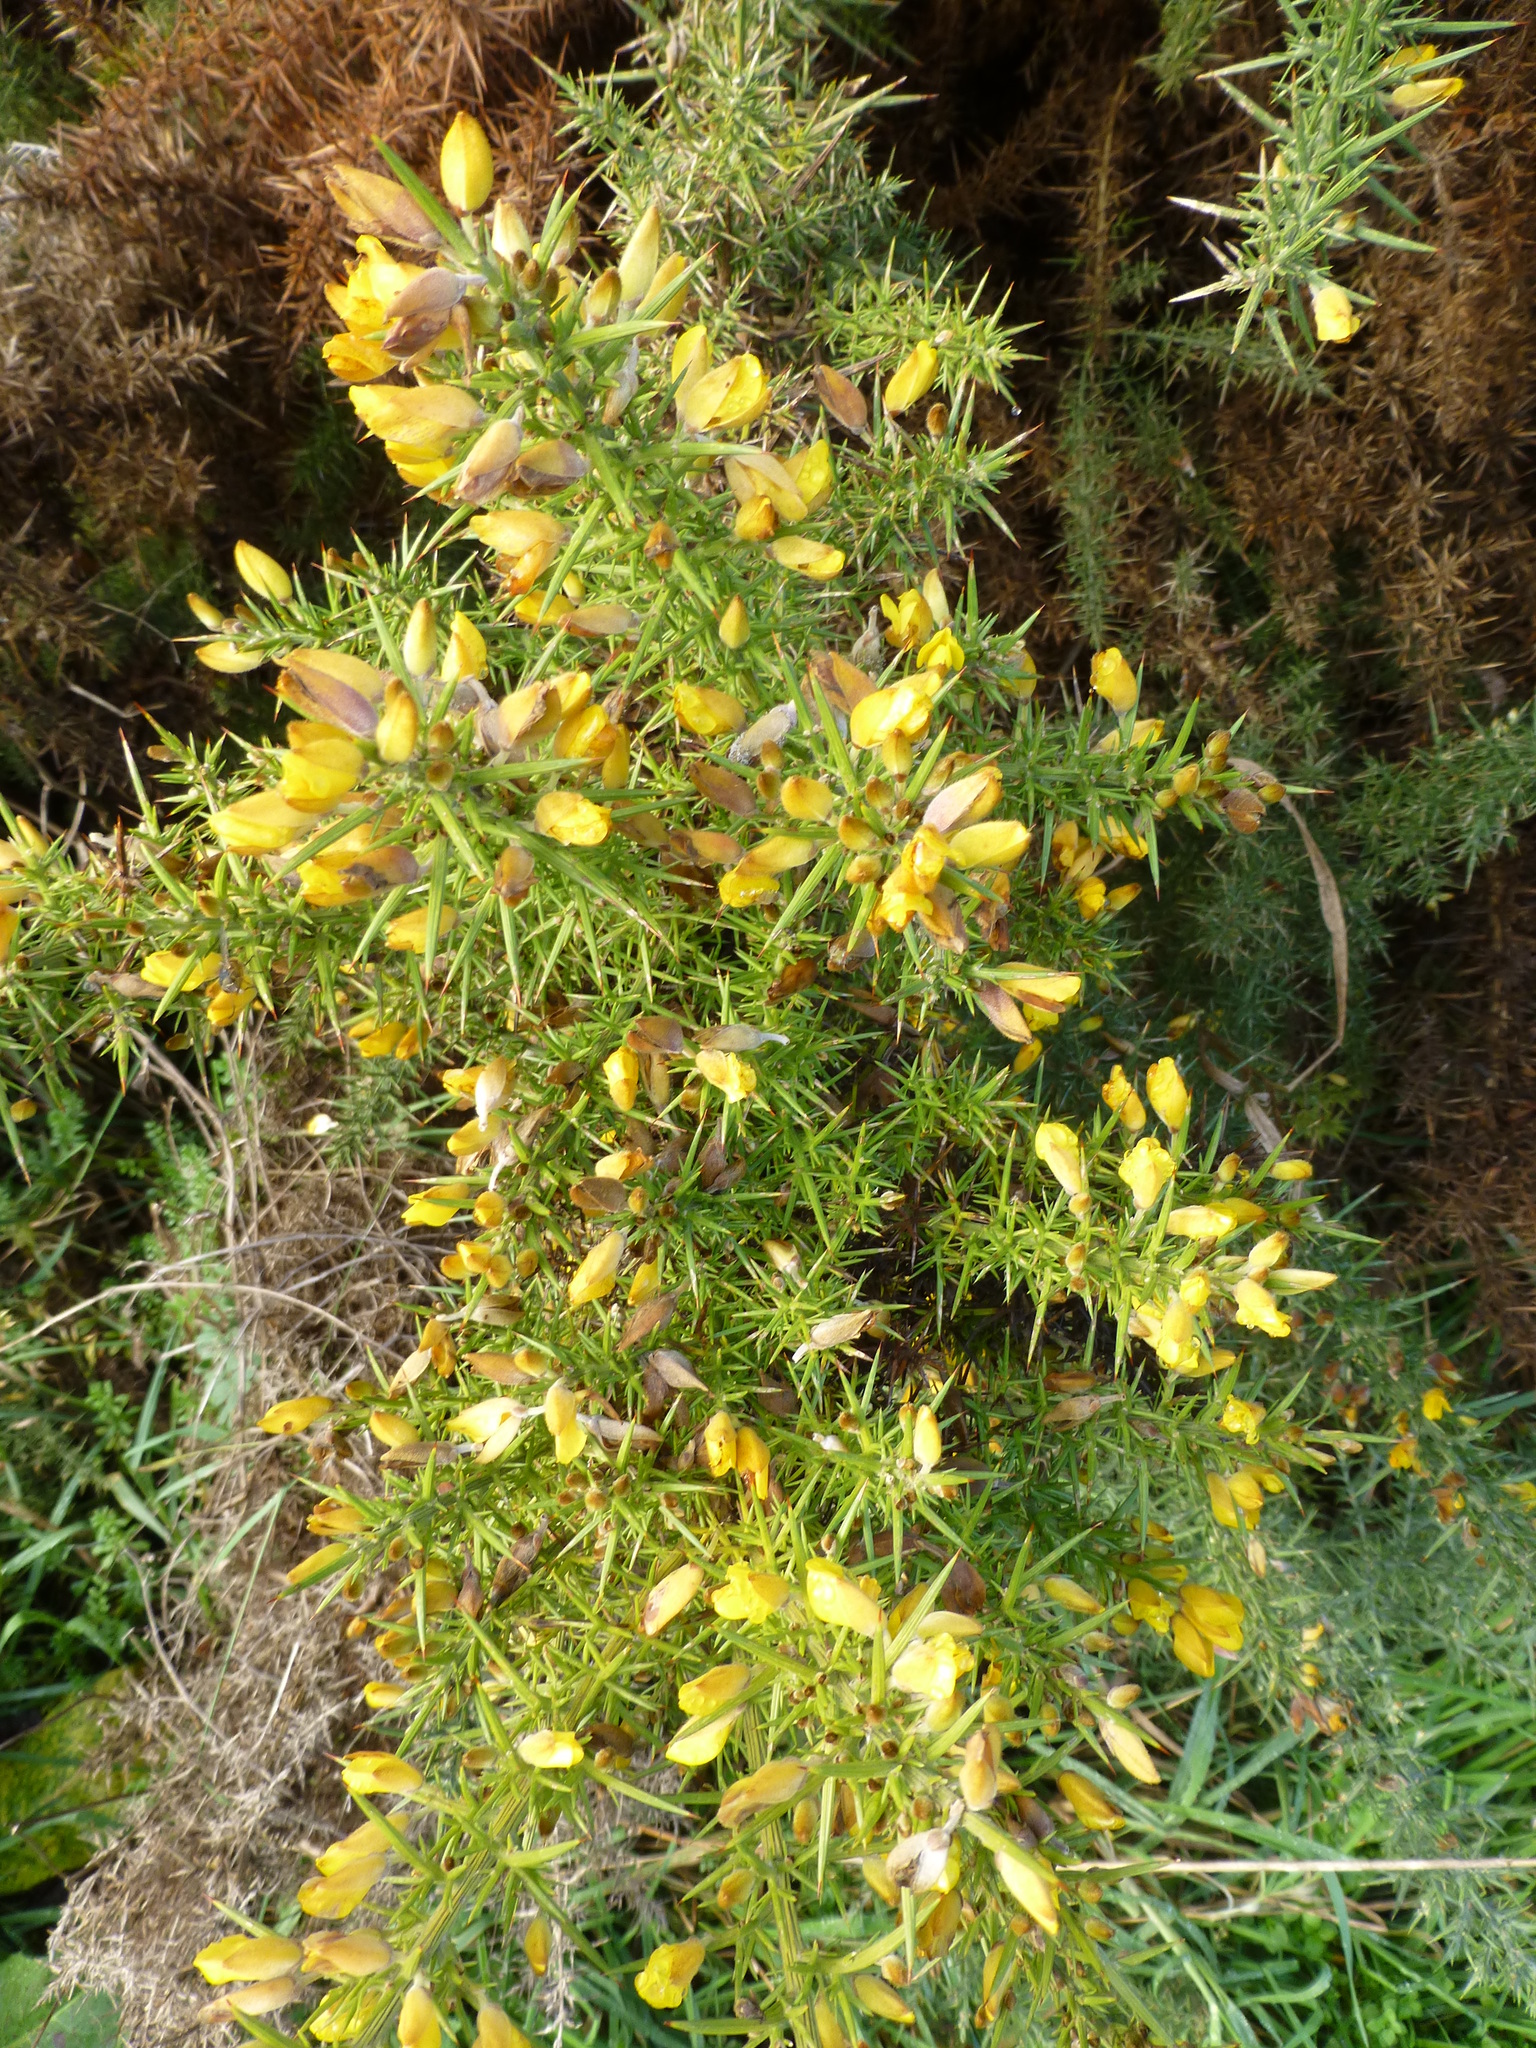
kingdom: Plantae
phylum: Tracheophyta
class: Magnoliopsida
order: Fabales
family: Fabaceae
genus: Ulex
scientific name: Ulex europaeus
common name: Common gorse
